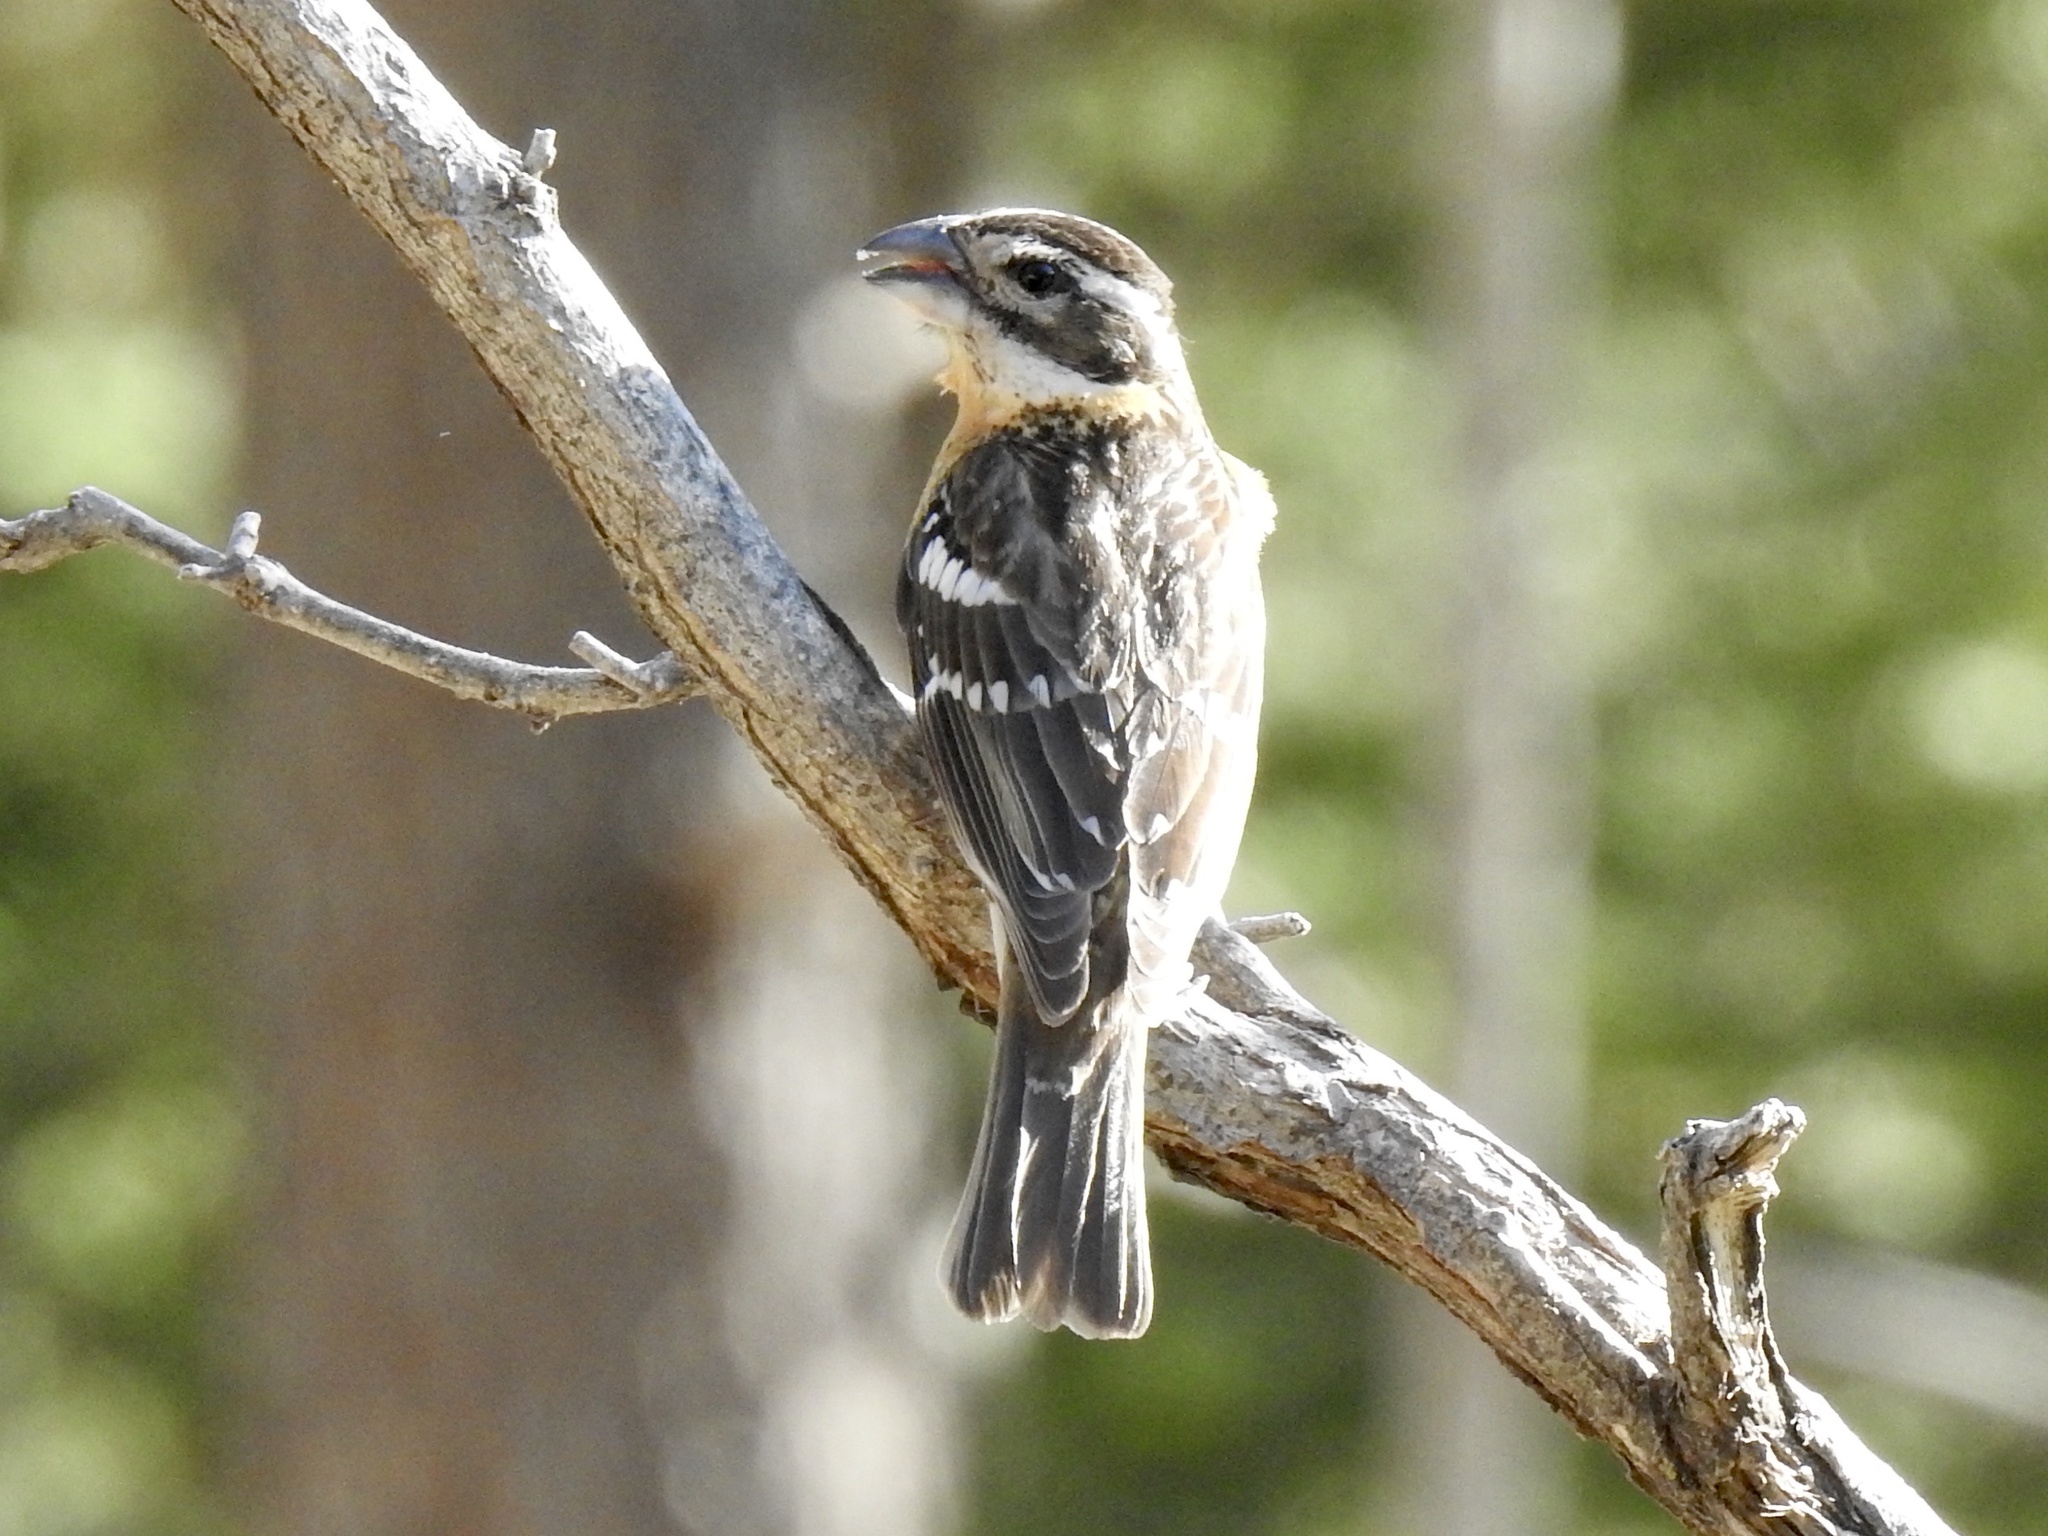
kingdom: Animalia
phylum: Chordata
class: Aves
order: Passeriformes
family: Cardinalidae
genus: Pheucticus
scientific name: Pheucticus melanocephalus
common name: Black-headed grosbeak
